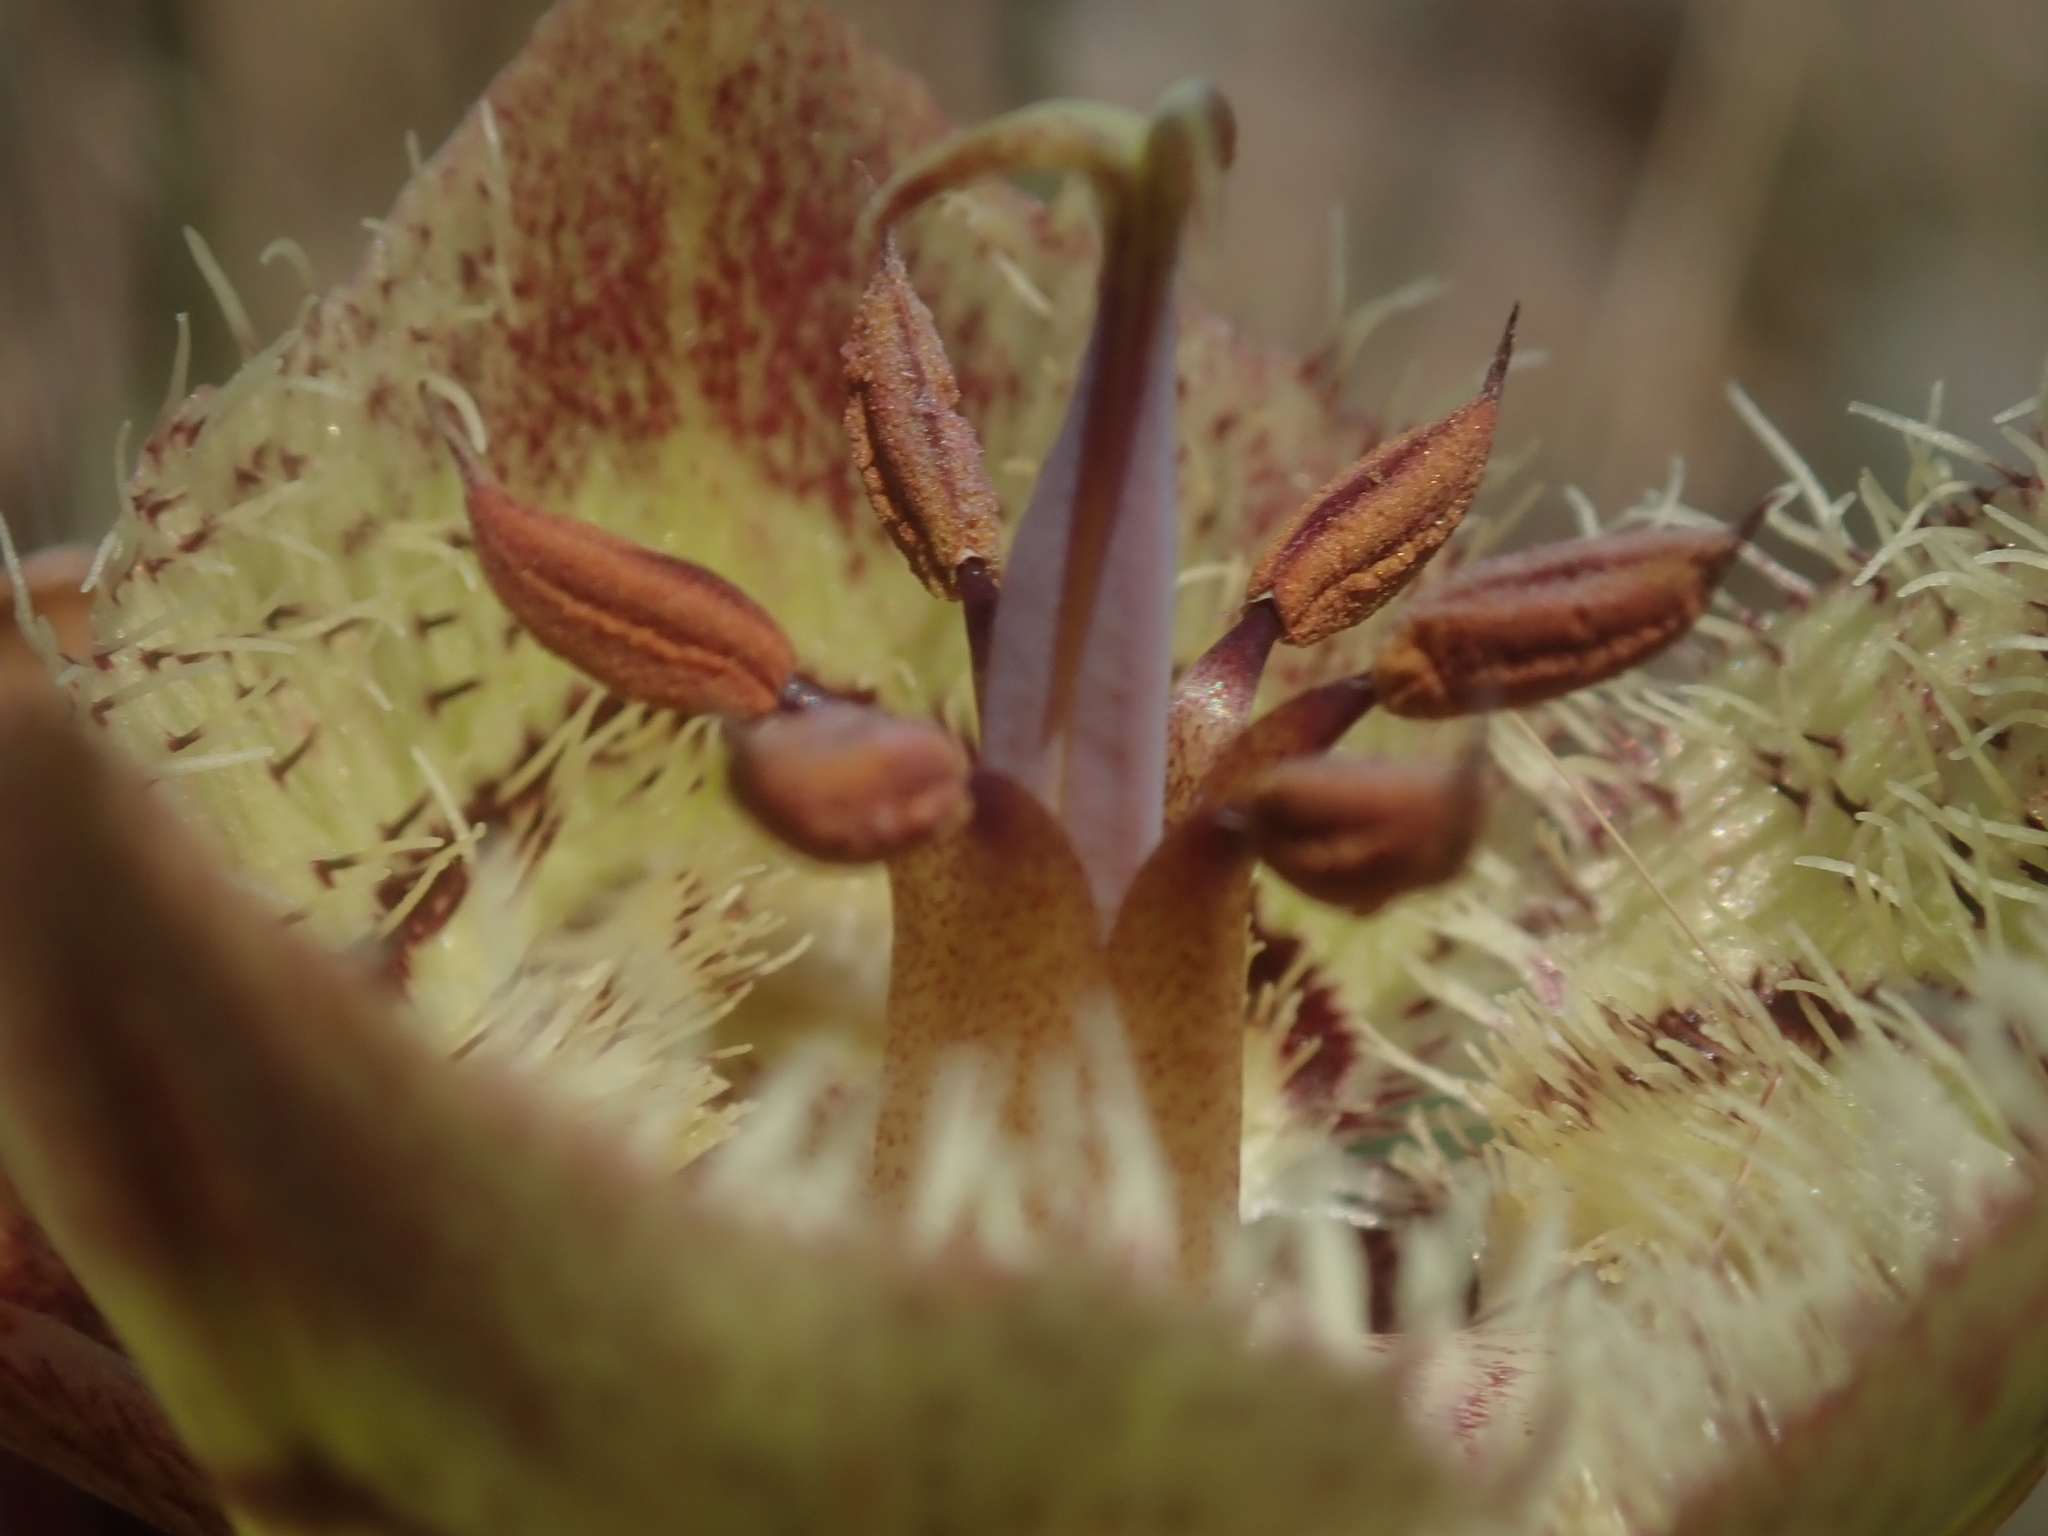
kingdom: Plantae
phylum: Tracheophyta
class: Liliopsida
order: Liliales
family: Liliaceae
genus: Calochortus
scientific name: Calochortus tiburonensis
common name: Tiburon mariposa-lily
